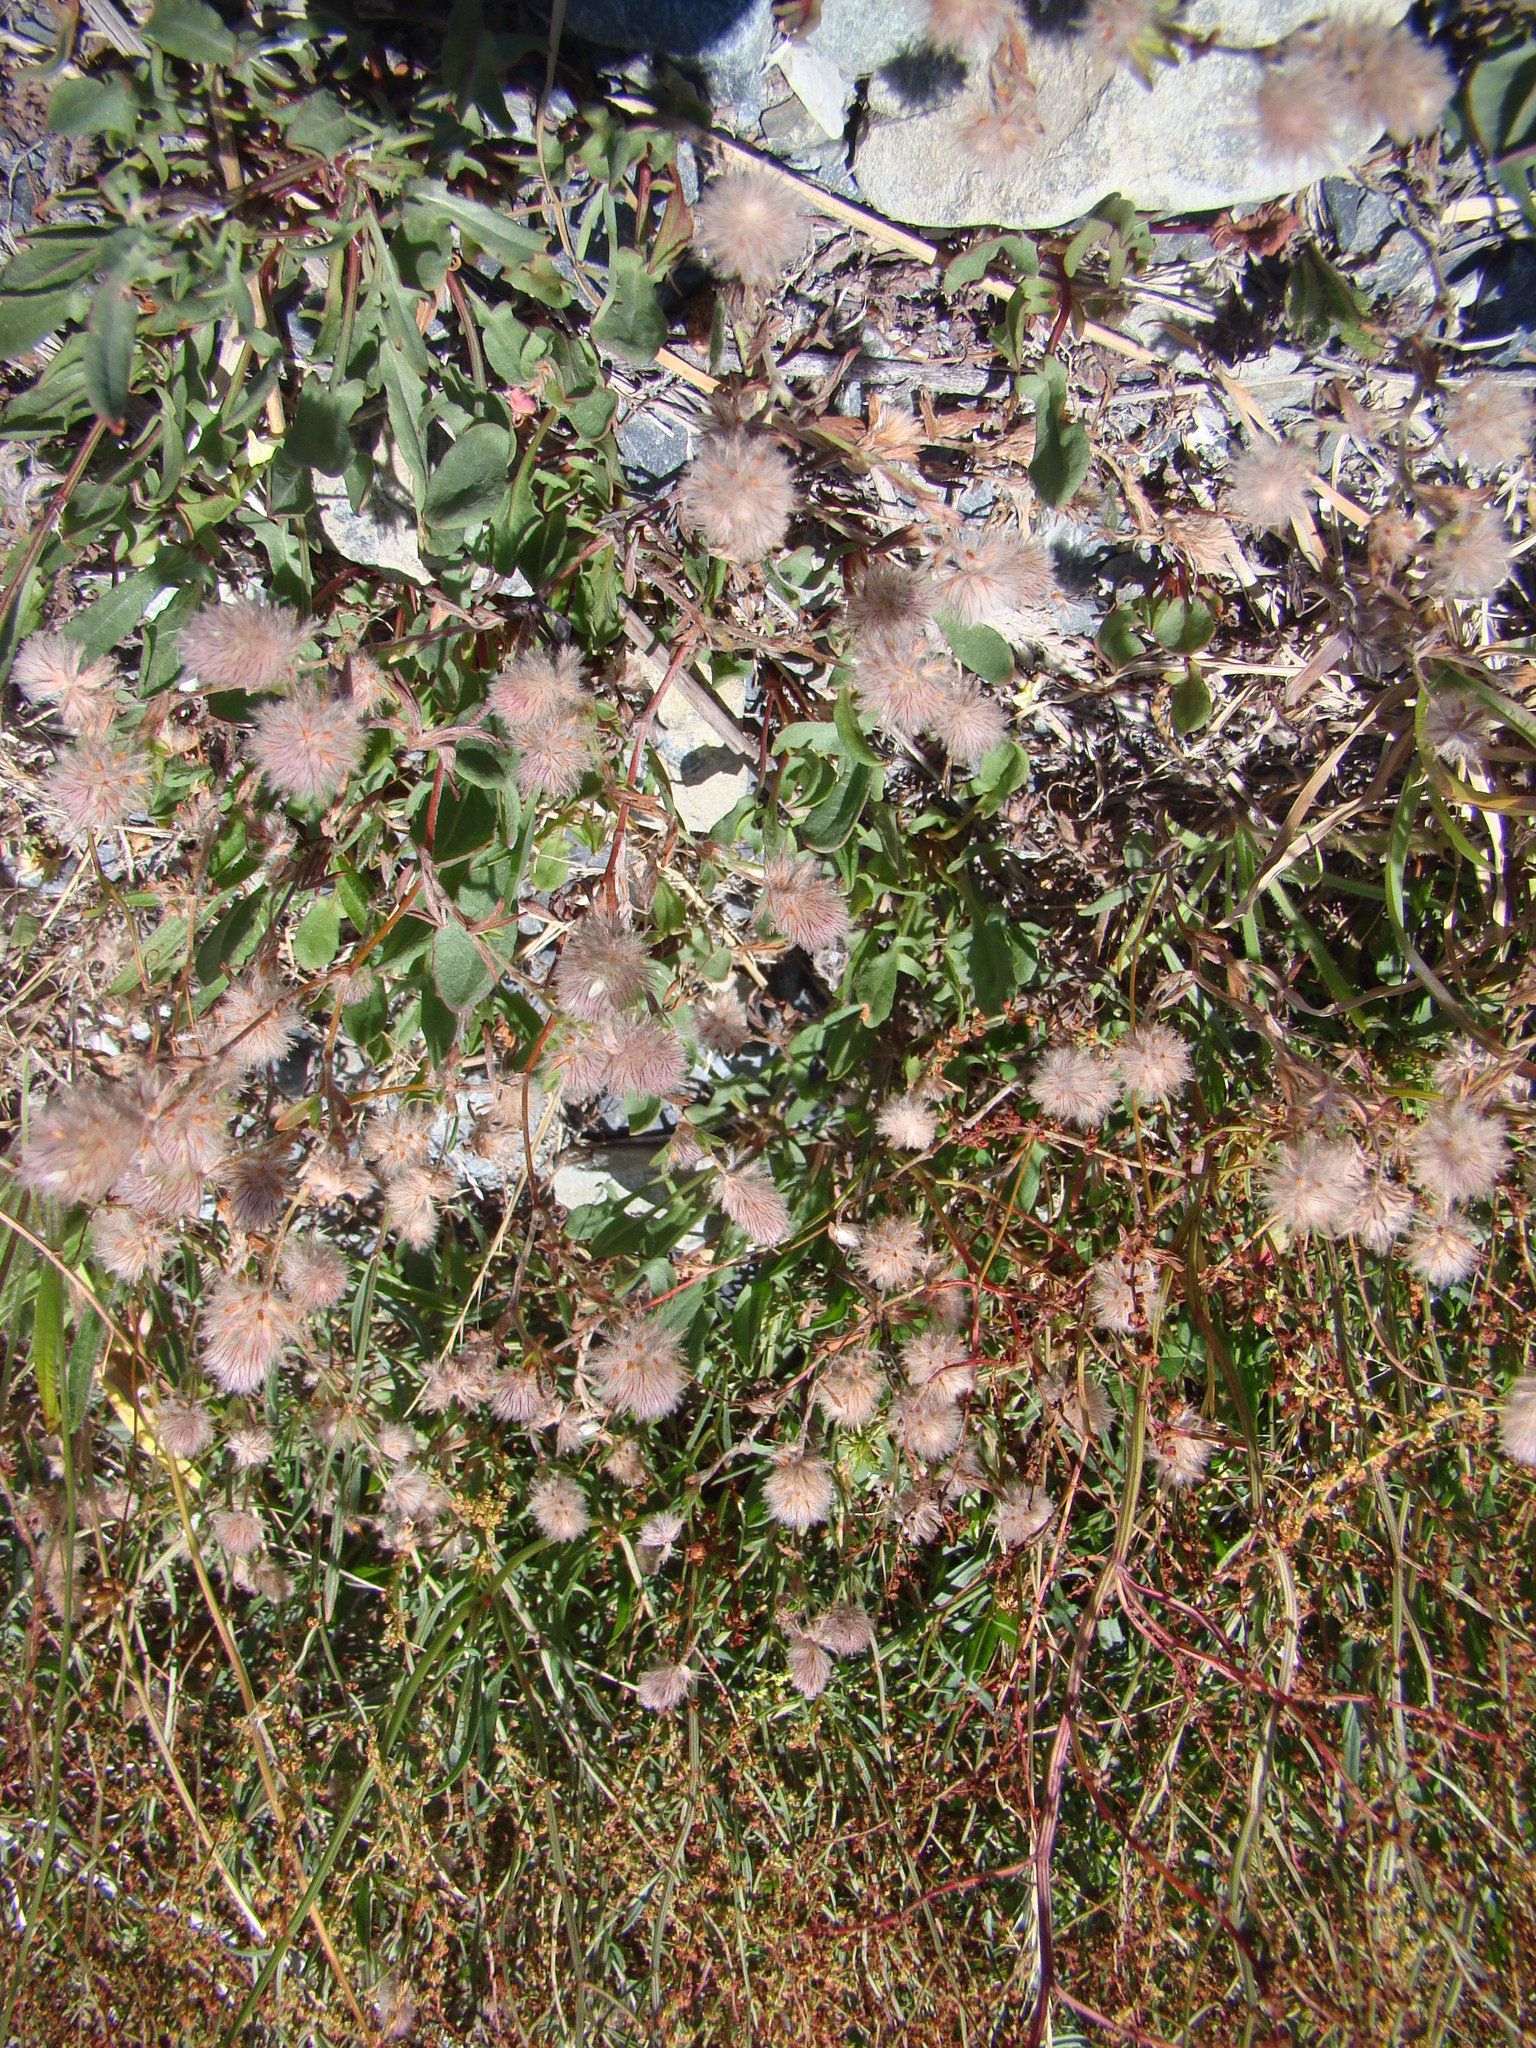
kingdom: Plantae
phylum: Tracheophyta
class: Magnoliopsida
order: Fabales
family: Fabaceae
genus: Trifolium
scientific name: Trifolium arvense
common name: Hare's-foot clover
